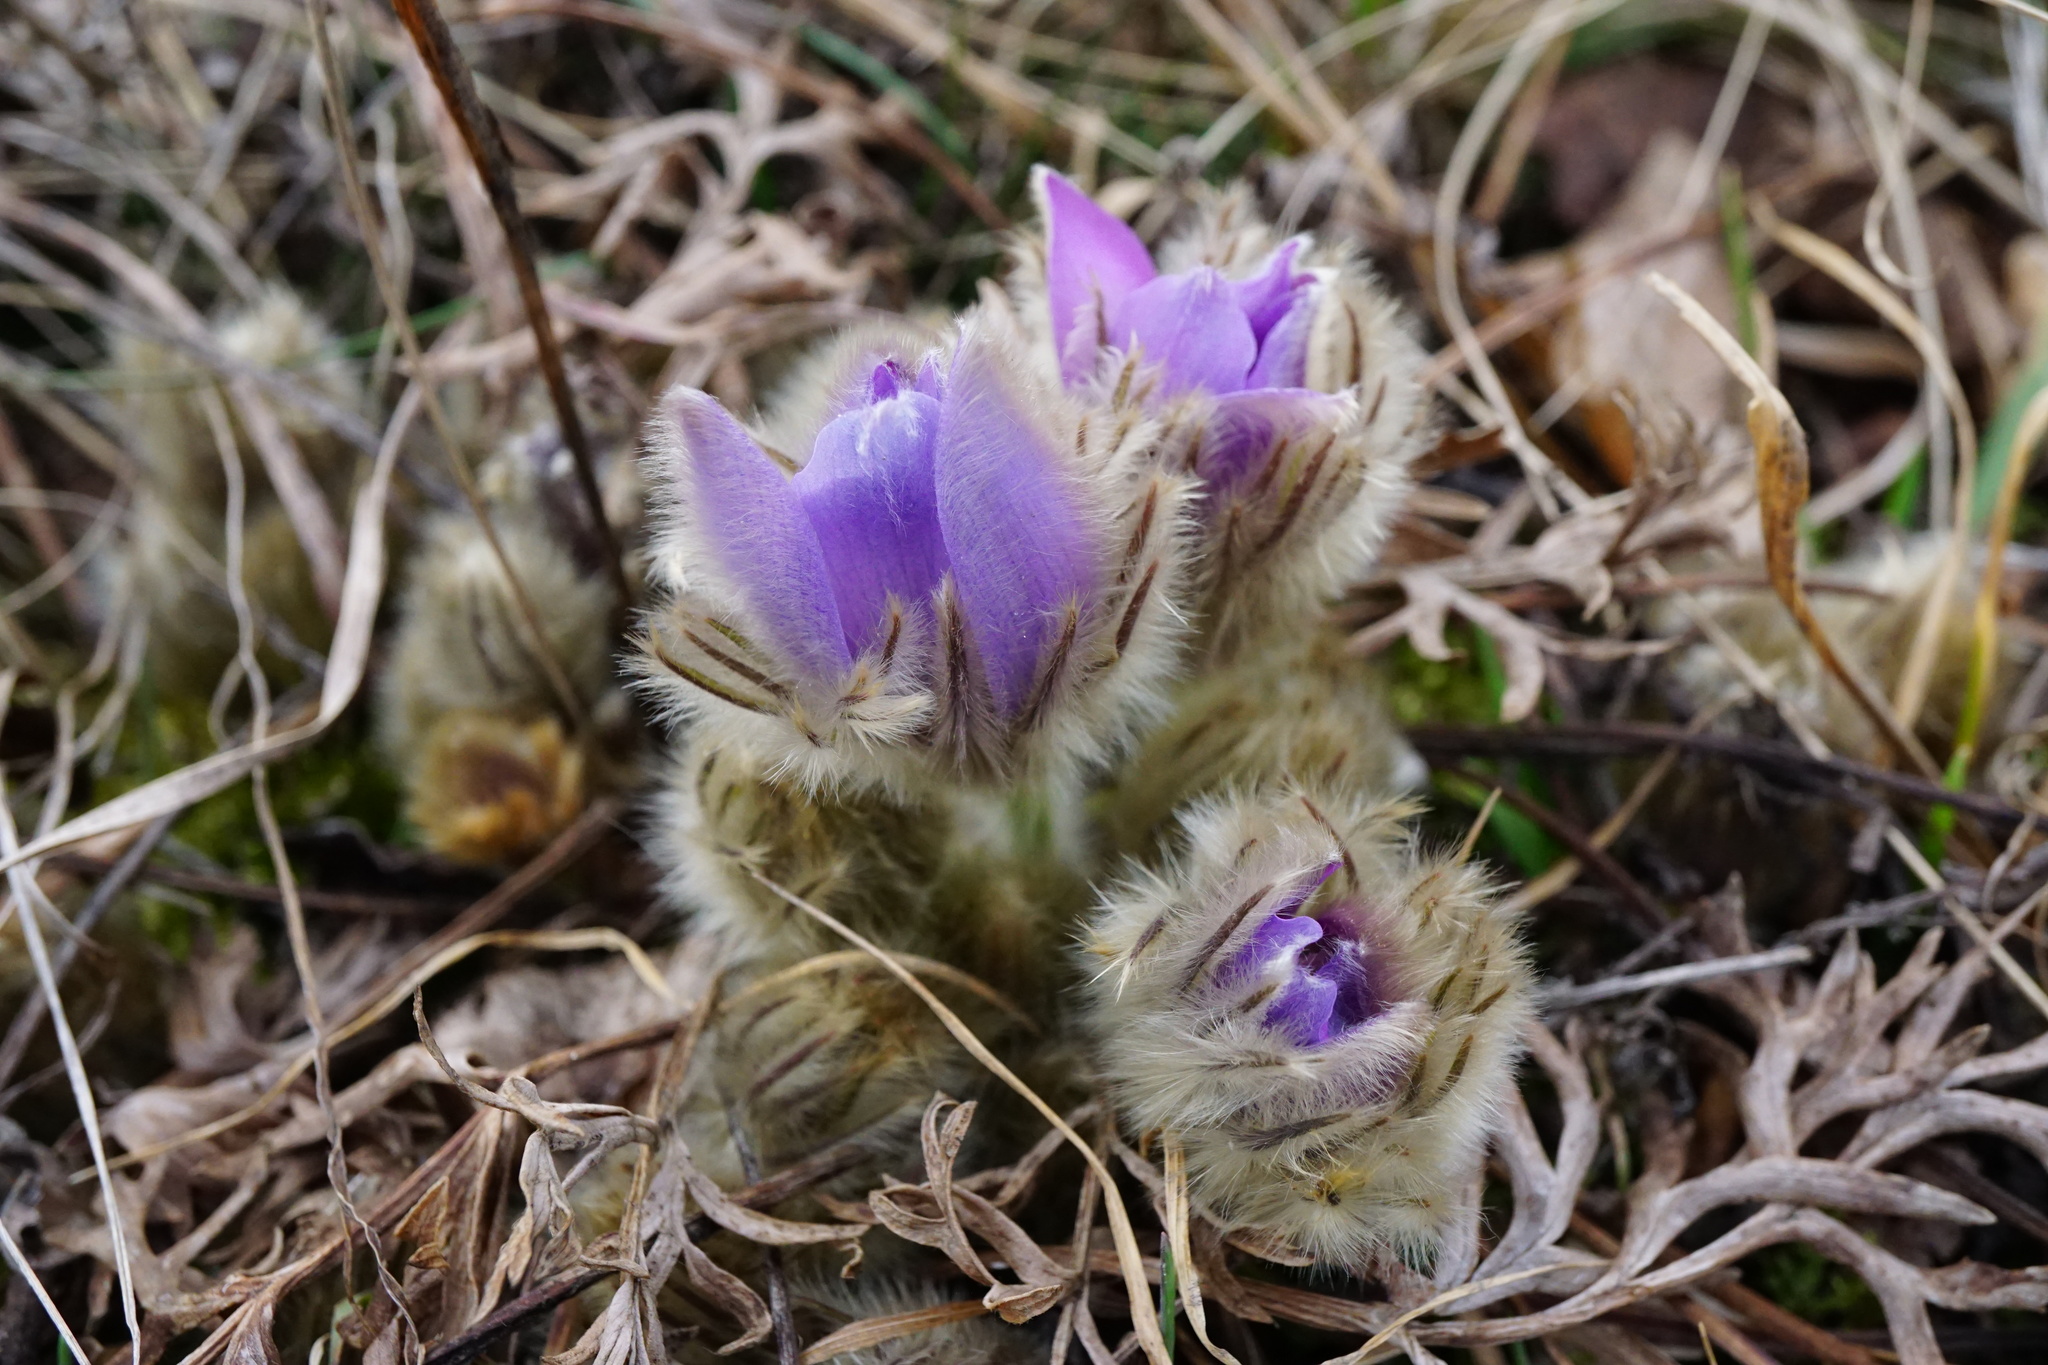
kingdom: Plantae
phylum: Tracheophyta
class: Magnoliopsida
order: Ranunculales
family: Ranunculaceae
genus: Pulsatilla
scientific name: Pulsatilla grandis
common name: Greater pasque flower
